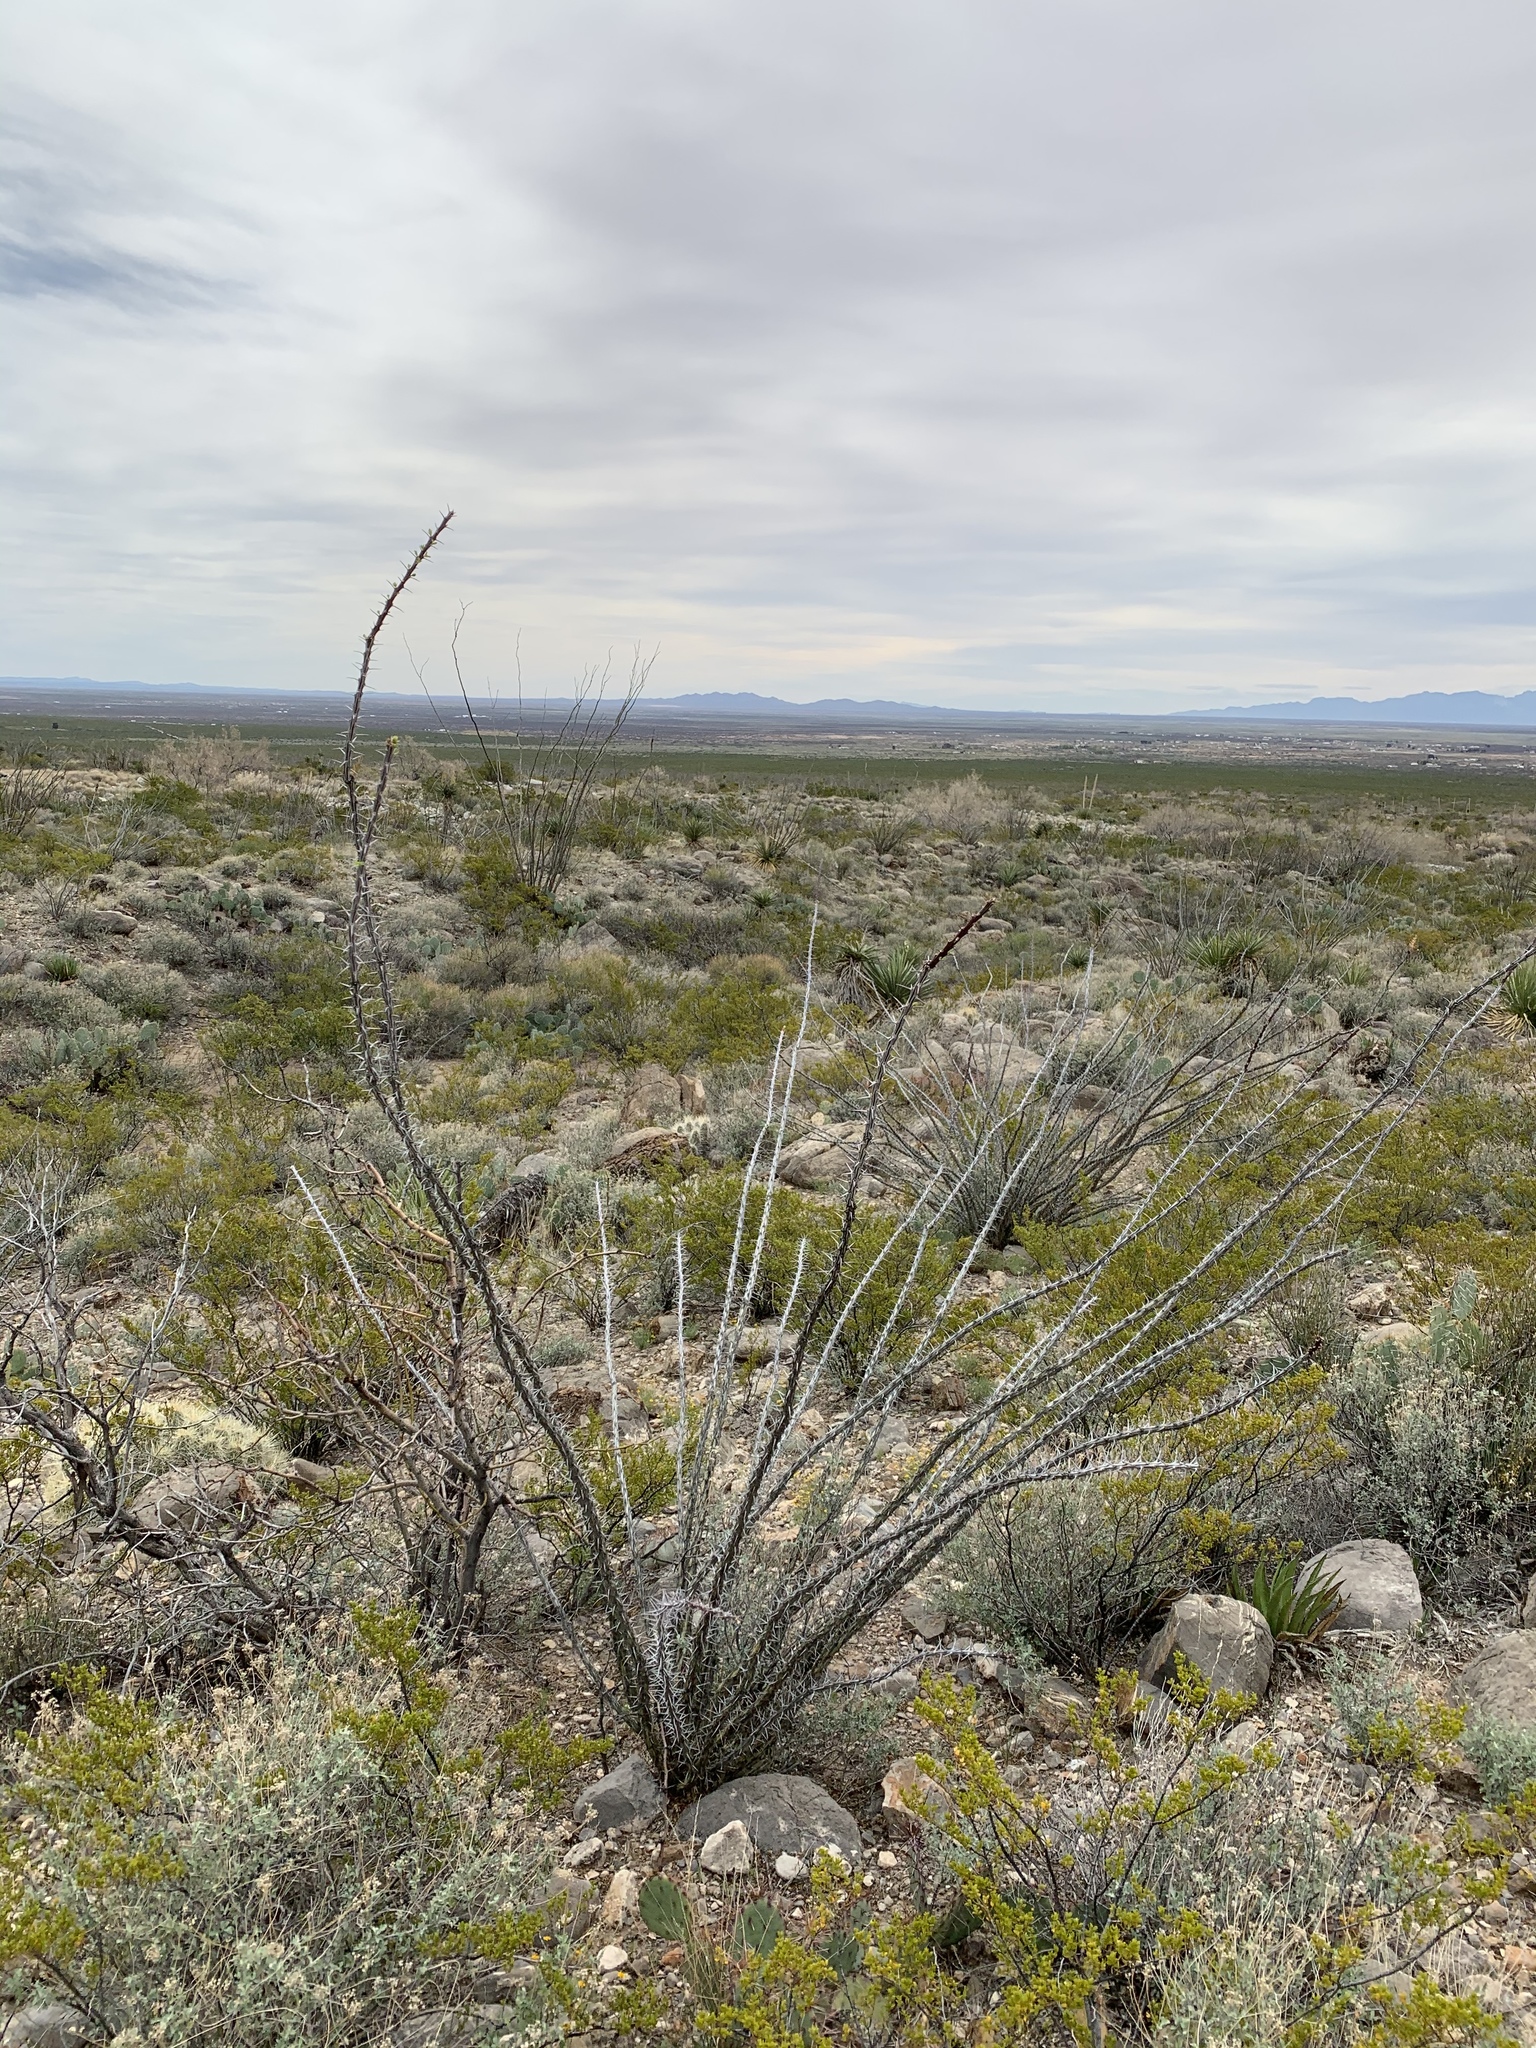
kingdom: Plantae
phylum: Tracheophyta
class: Magnoliopsida
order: Ericales
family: Fouquieriaceae
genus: Fouquieria
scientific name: Fouquieria splendens
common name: Vine-cactus
